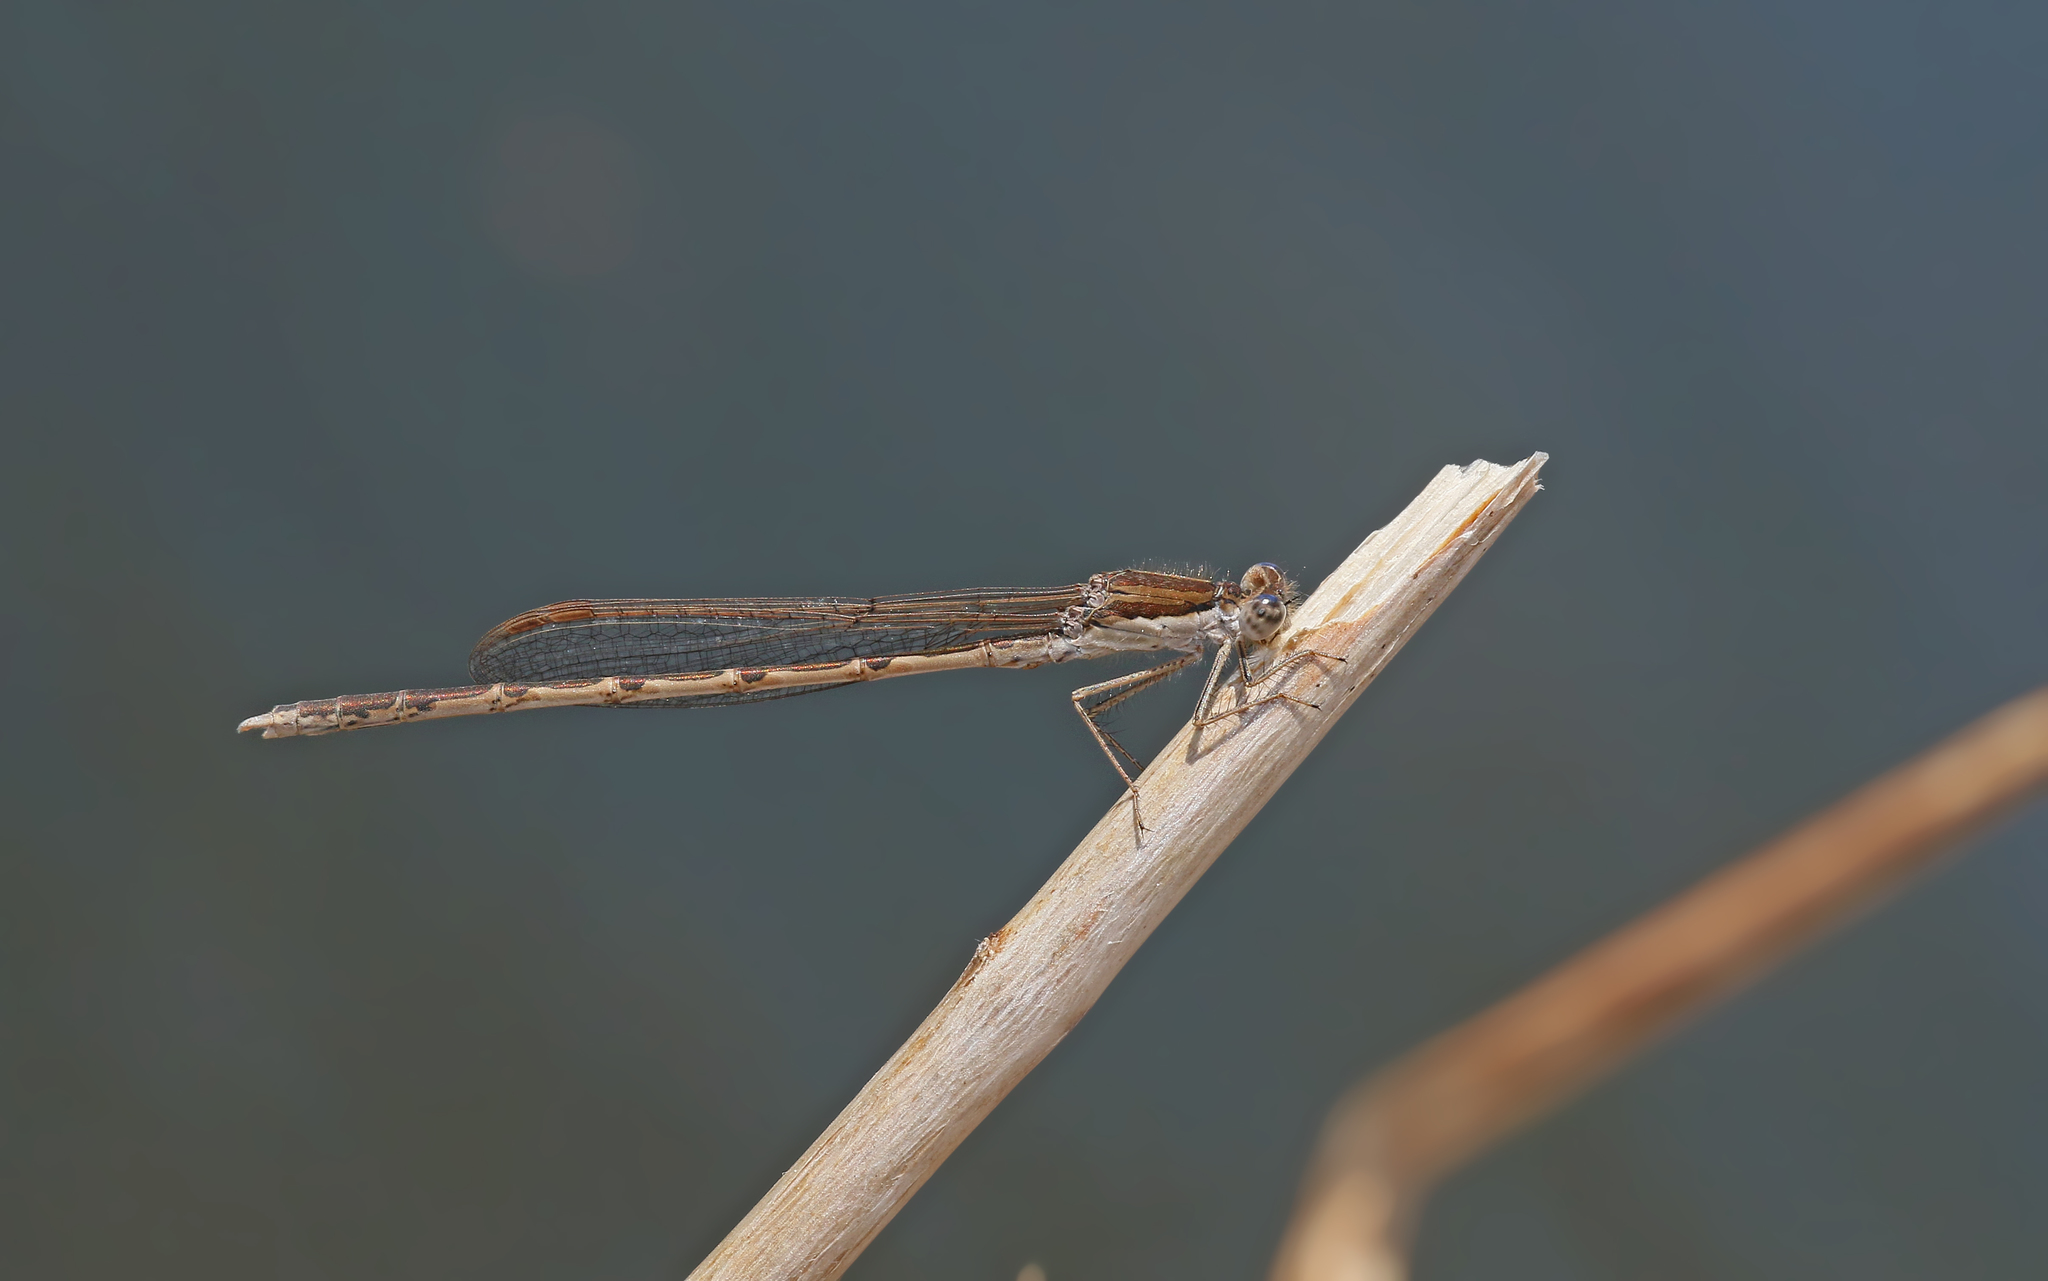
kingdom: Animalia
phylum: Arthropoda
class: Insecta
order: Odonata
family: Lestidae
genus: Sympecma
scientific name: Sympecma fusca
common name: Common winter damsel
